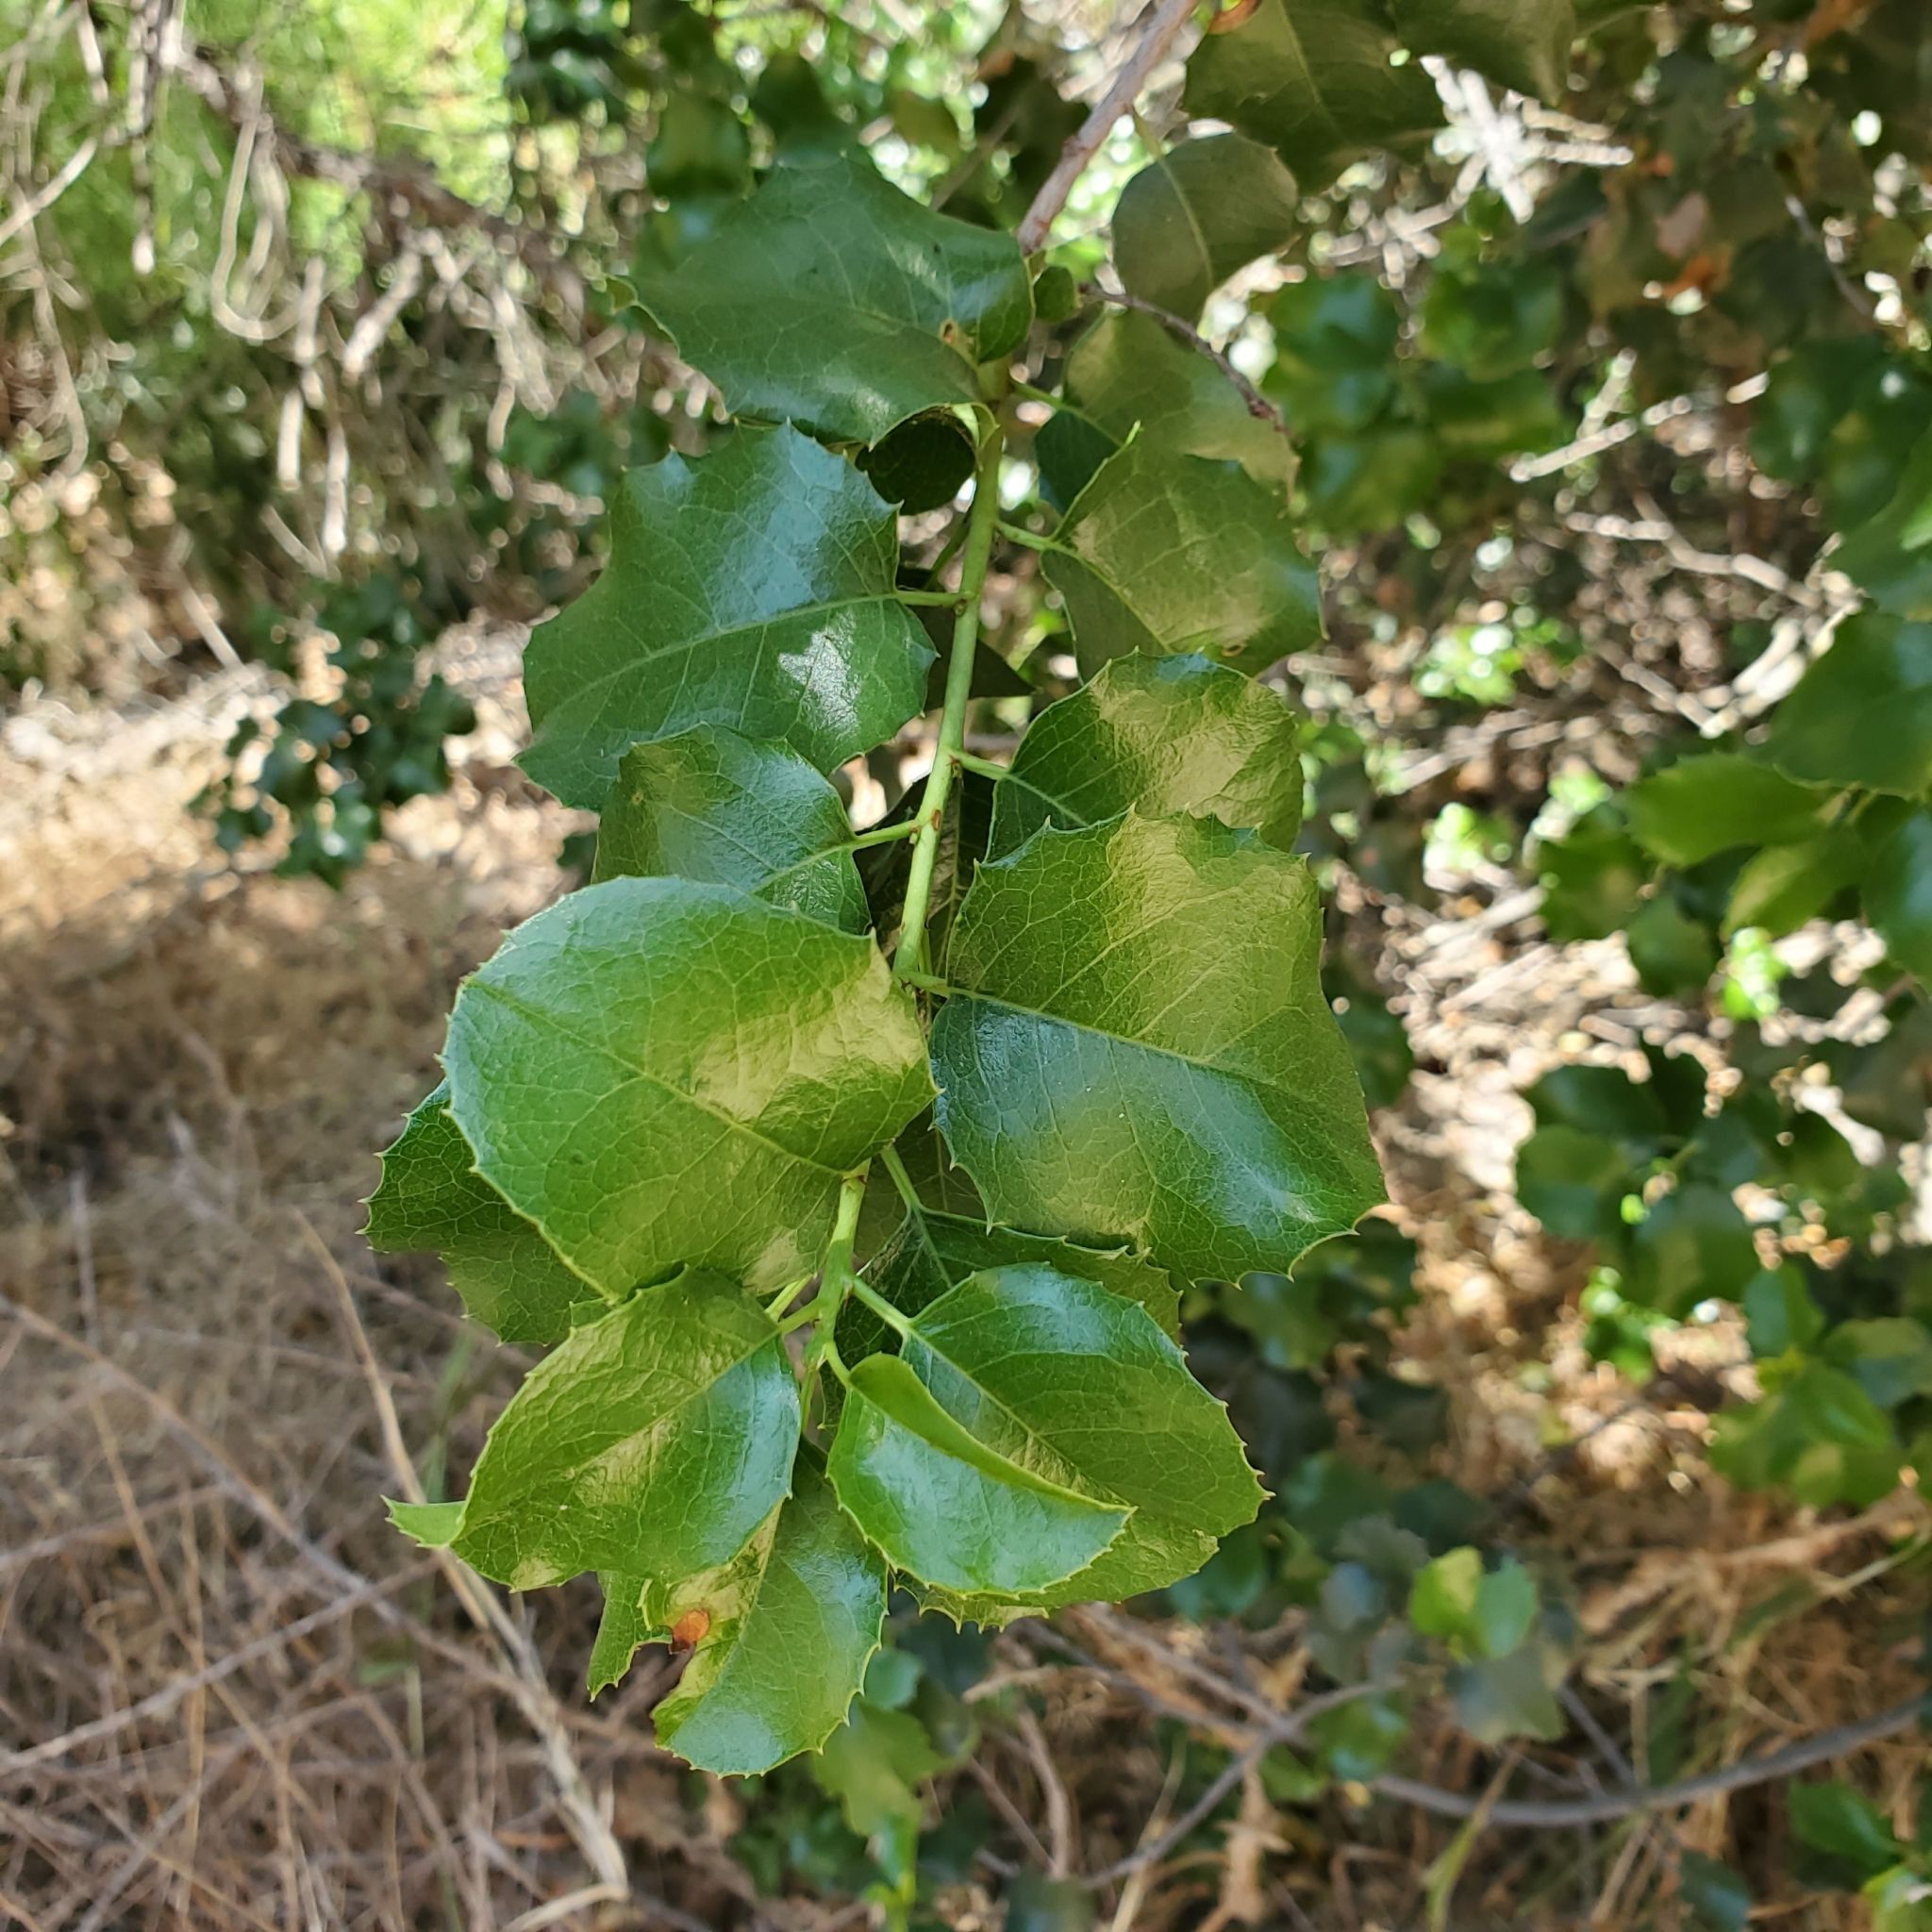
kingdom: Plantae
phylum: Tracheophyta
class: Magnoliopsida
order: Rosales
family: Rosaceae
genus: Prunus
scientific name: Prunus ilicifolia
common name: Hollyleaf cherry
